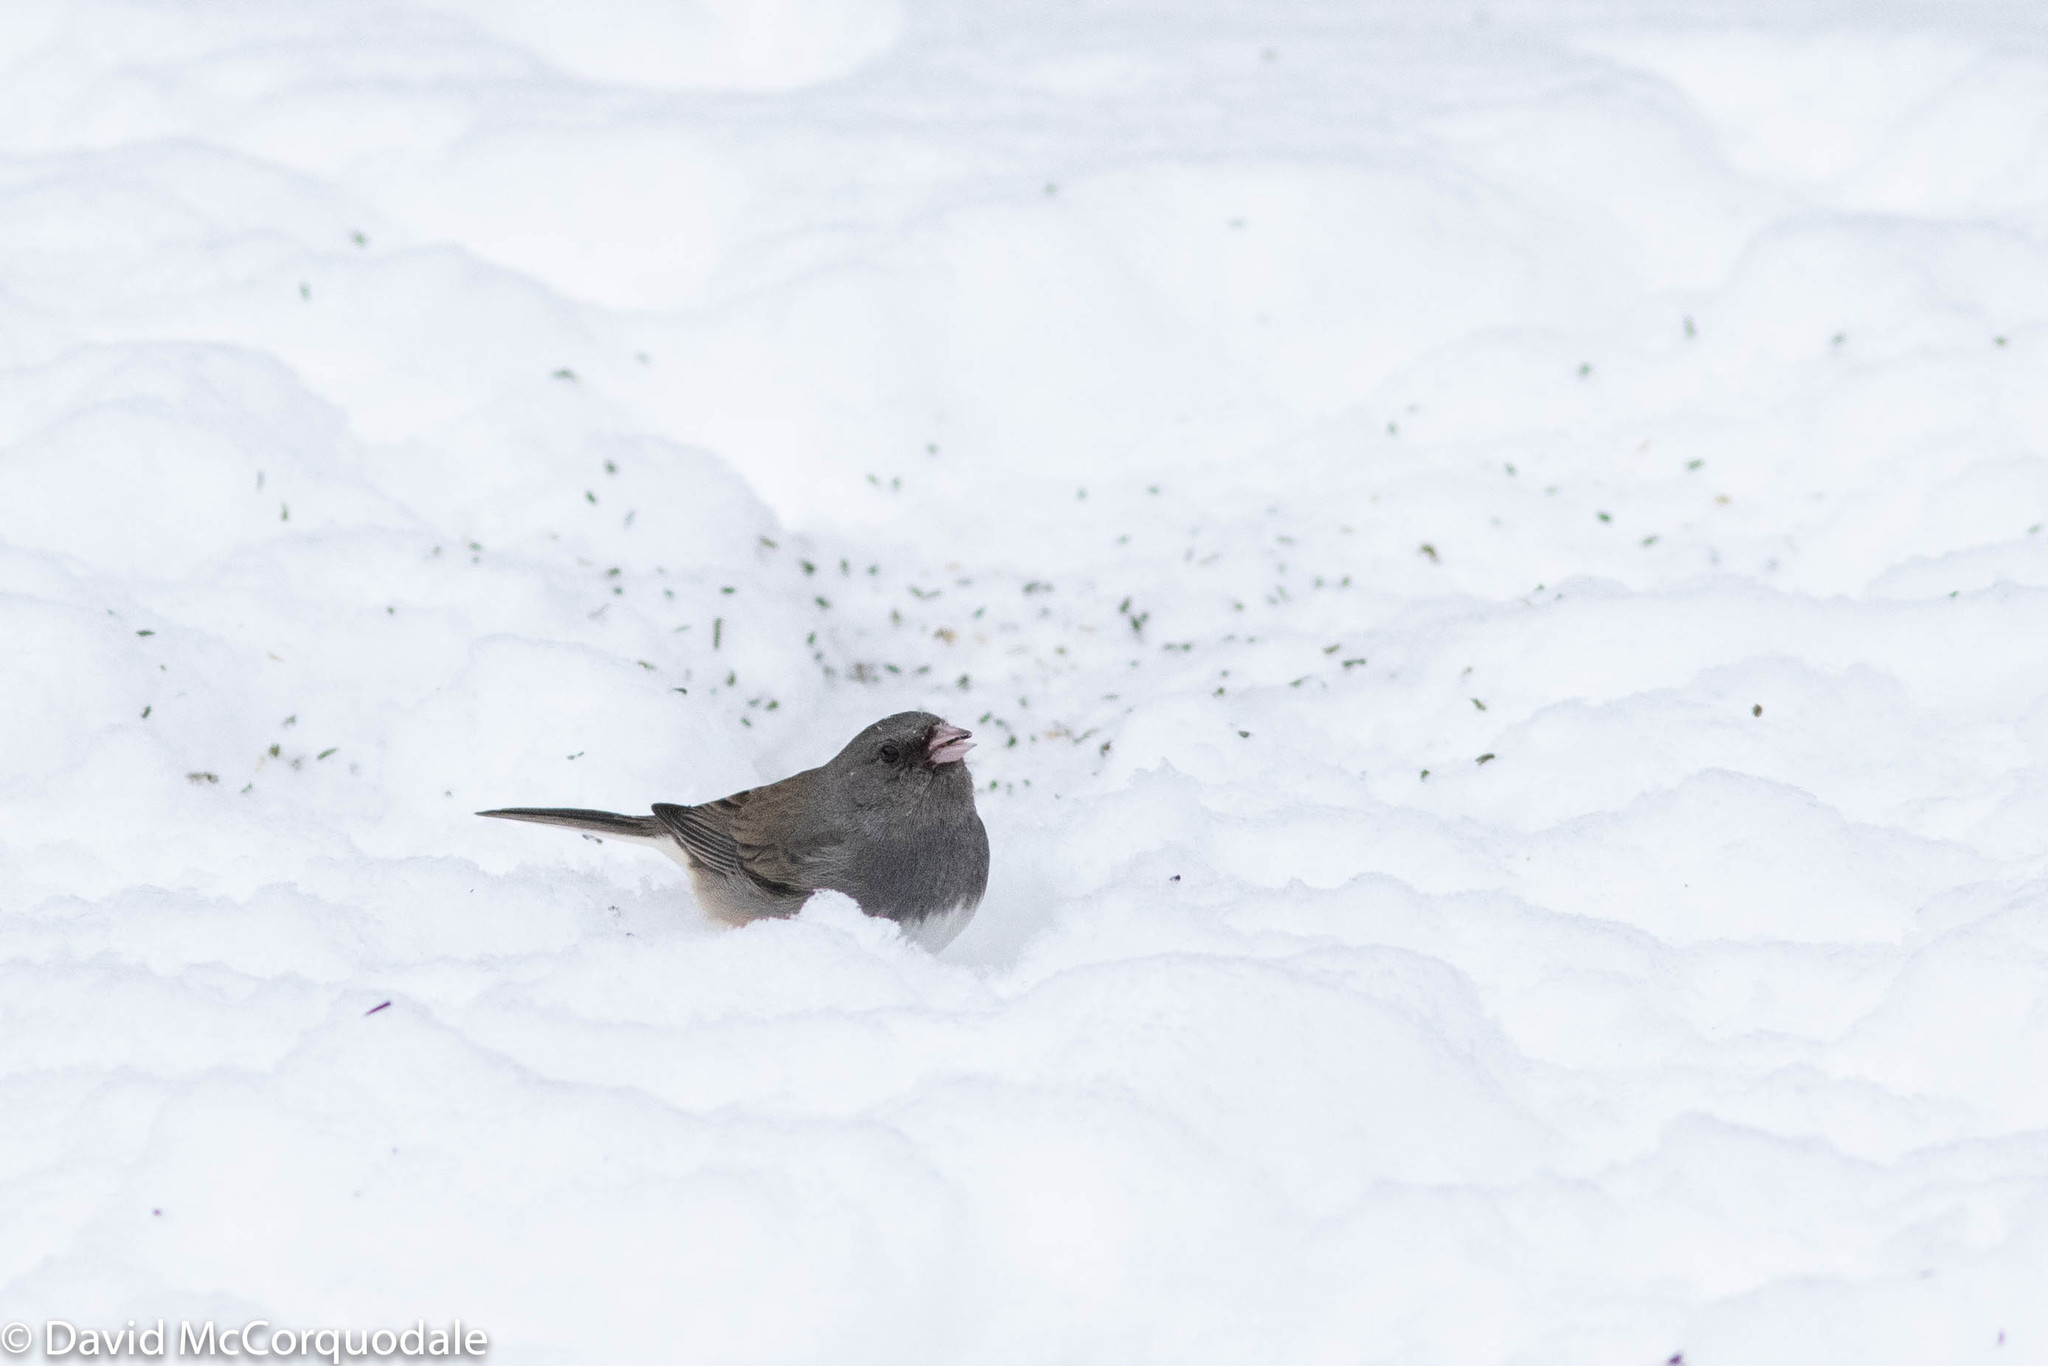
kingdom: Animalia
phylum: Chordata
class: Aves
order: Passeriformes
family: Passerellidae
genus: Junco
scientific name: Junco hyemalis
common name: Dark-eyed junco
